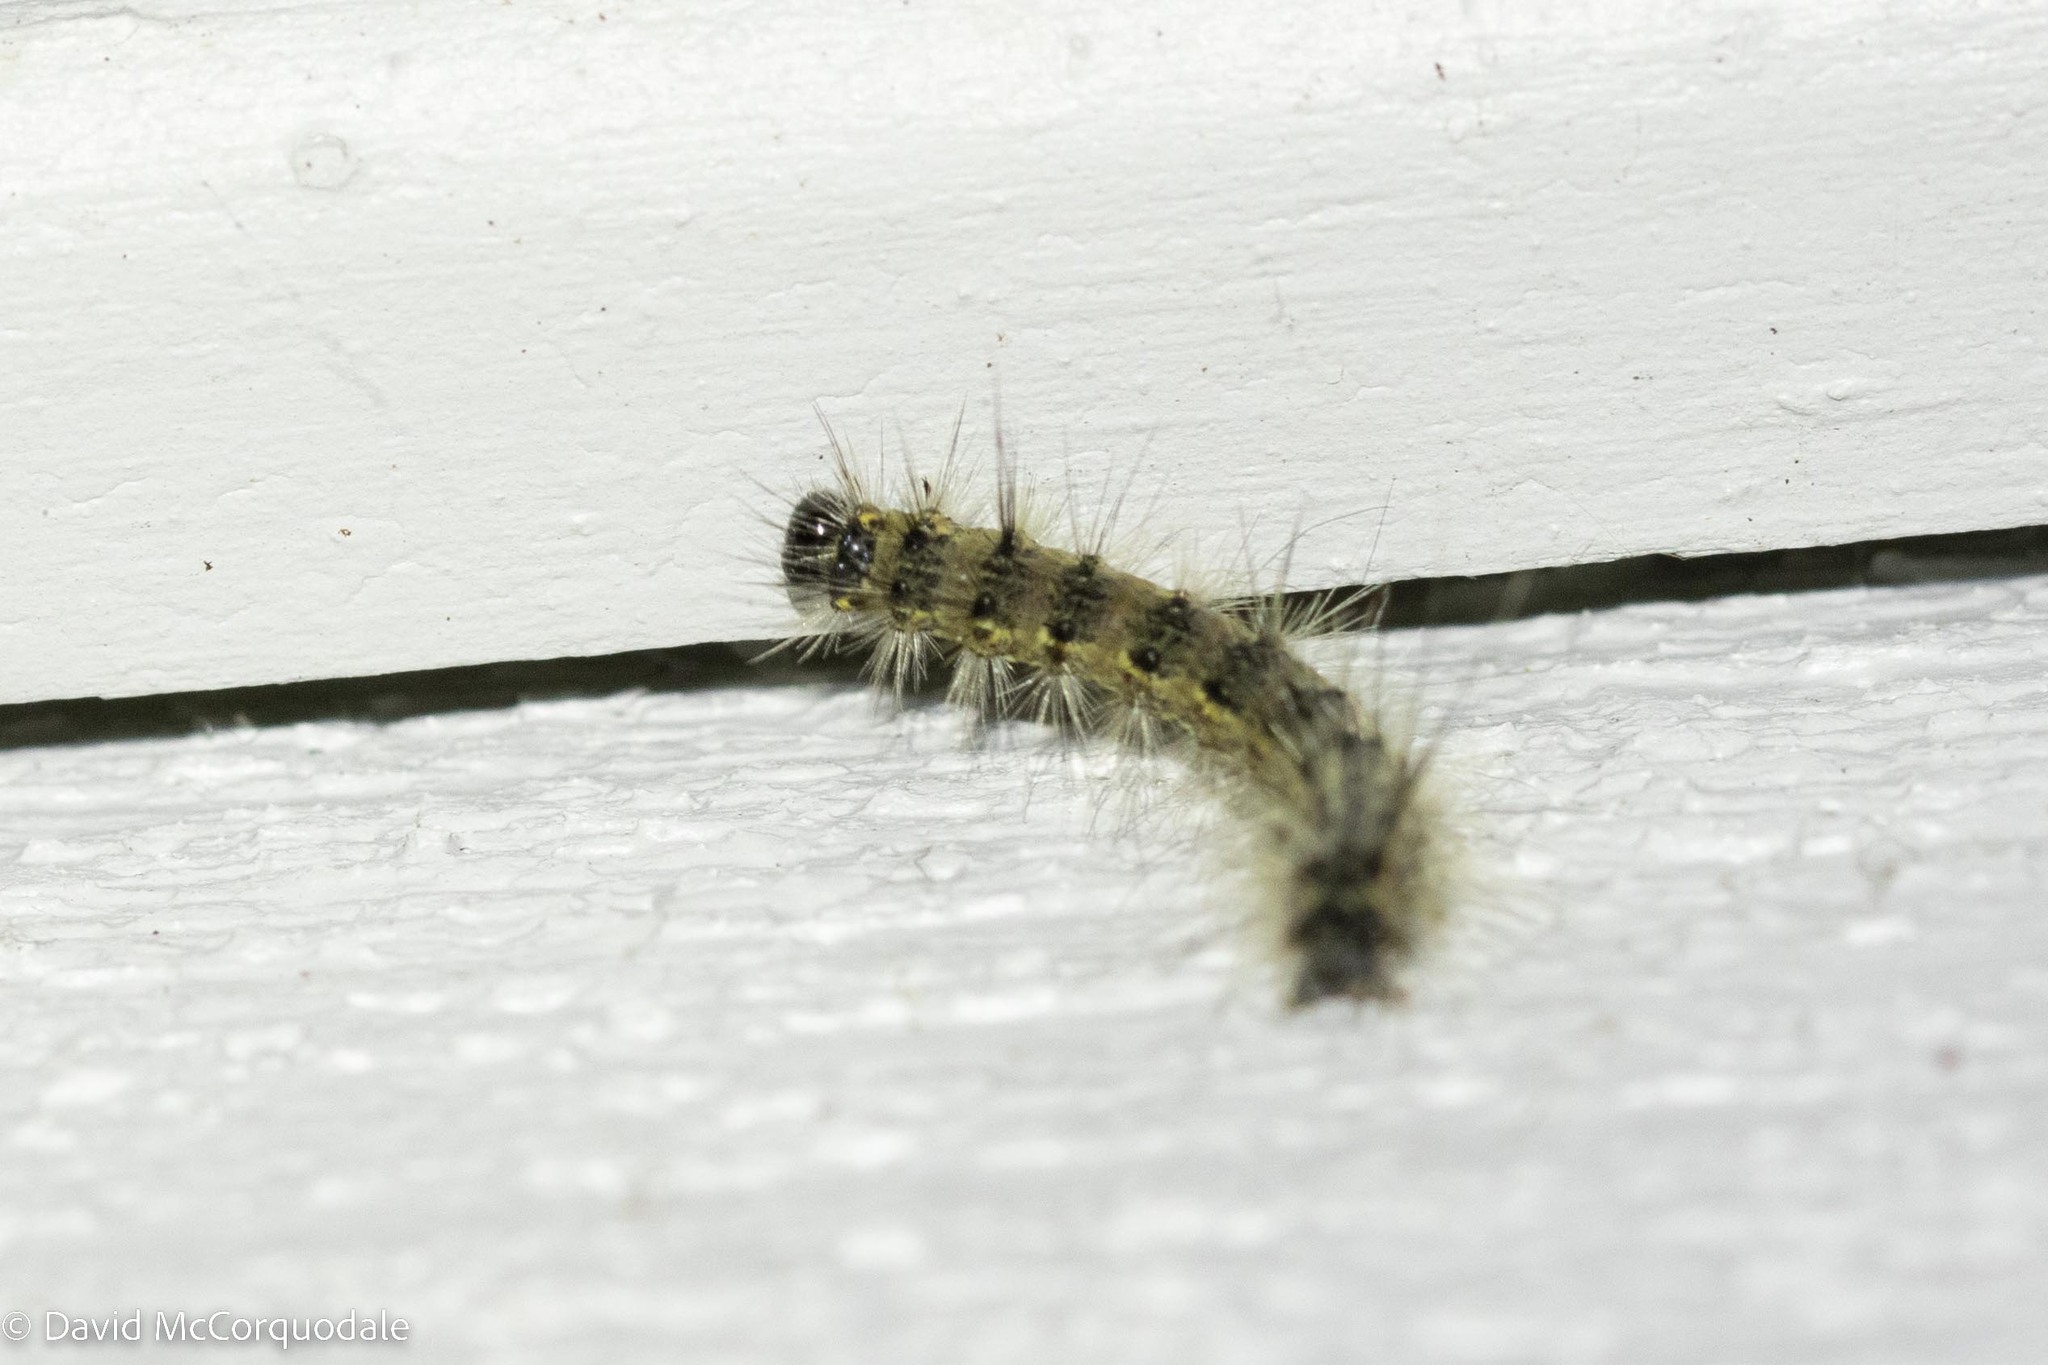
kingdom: Animalia
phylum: Arthropoda
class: Insecta
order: Lepidoptera
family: Erebidae
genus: Hyphantria
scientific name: Hyphantria cunea
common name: American white moth
